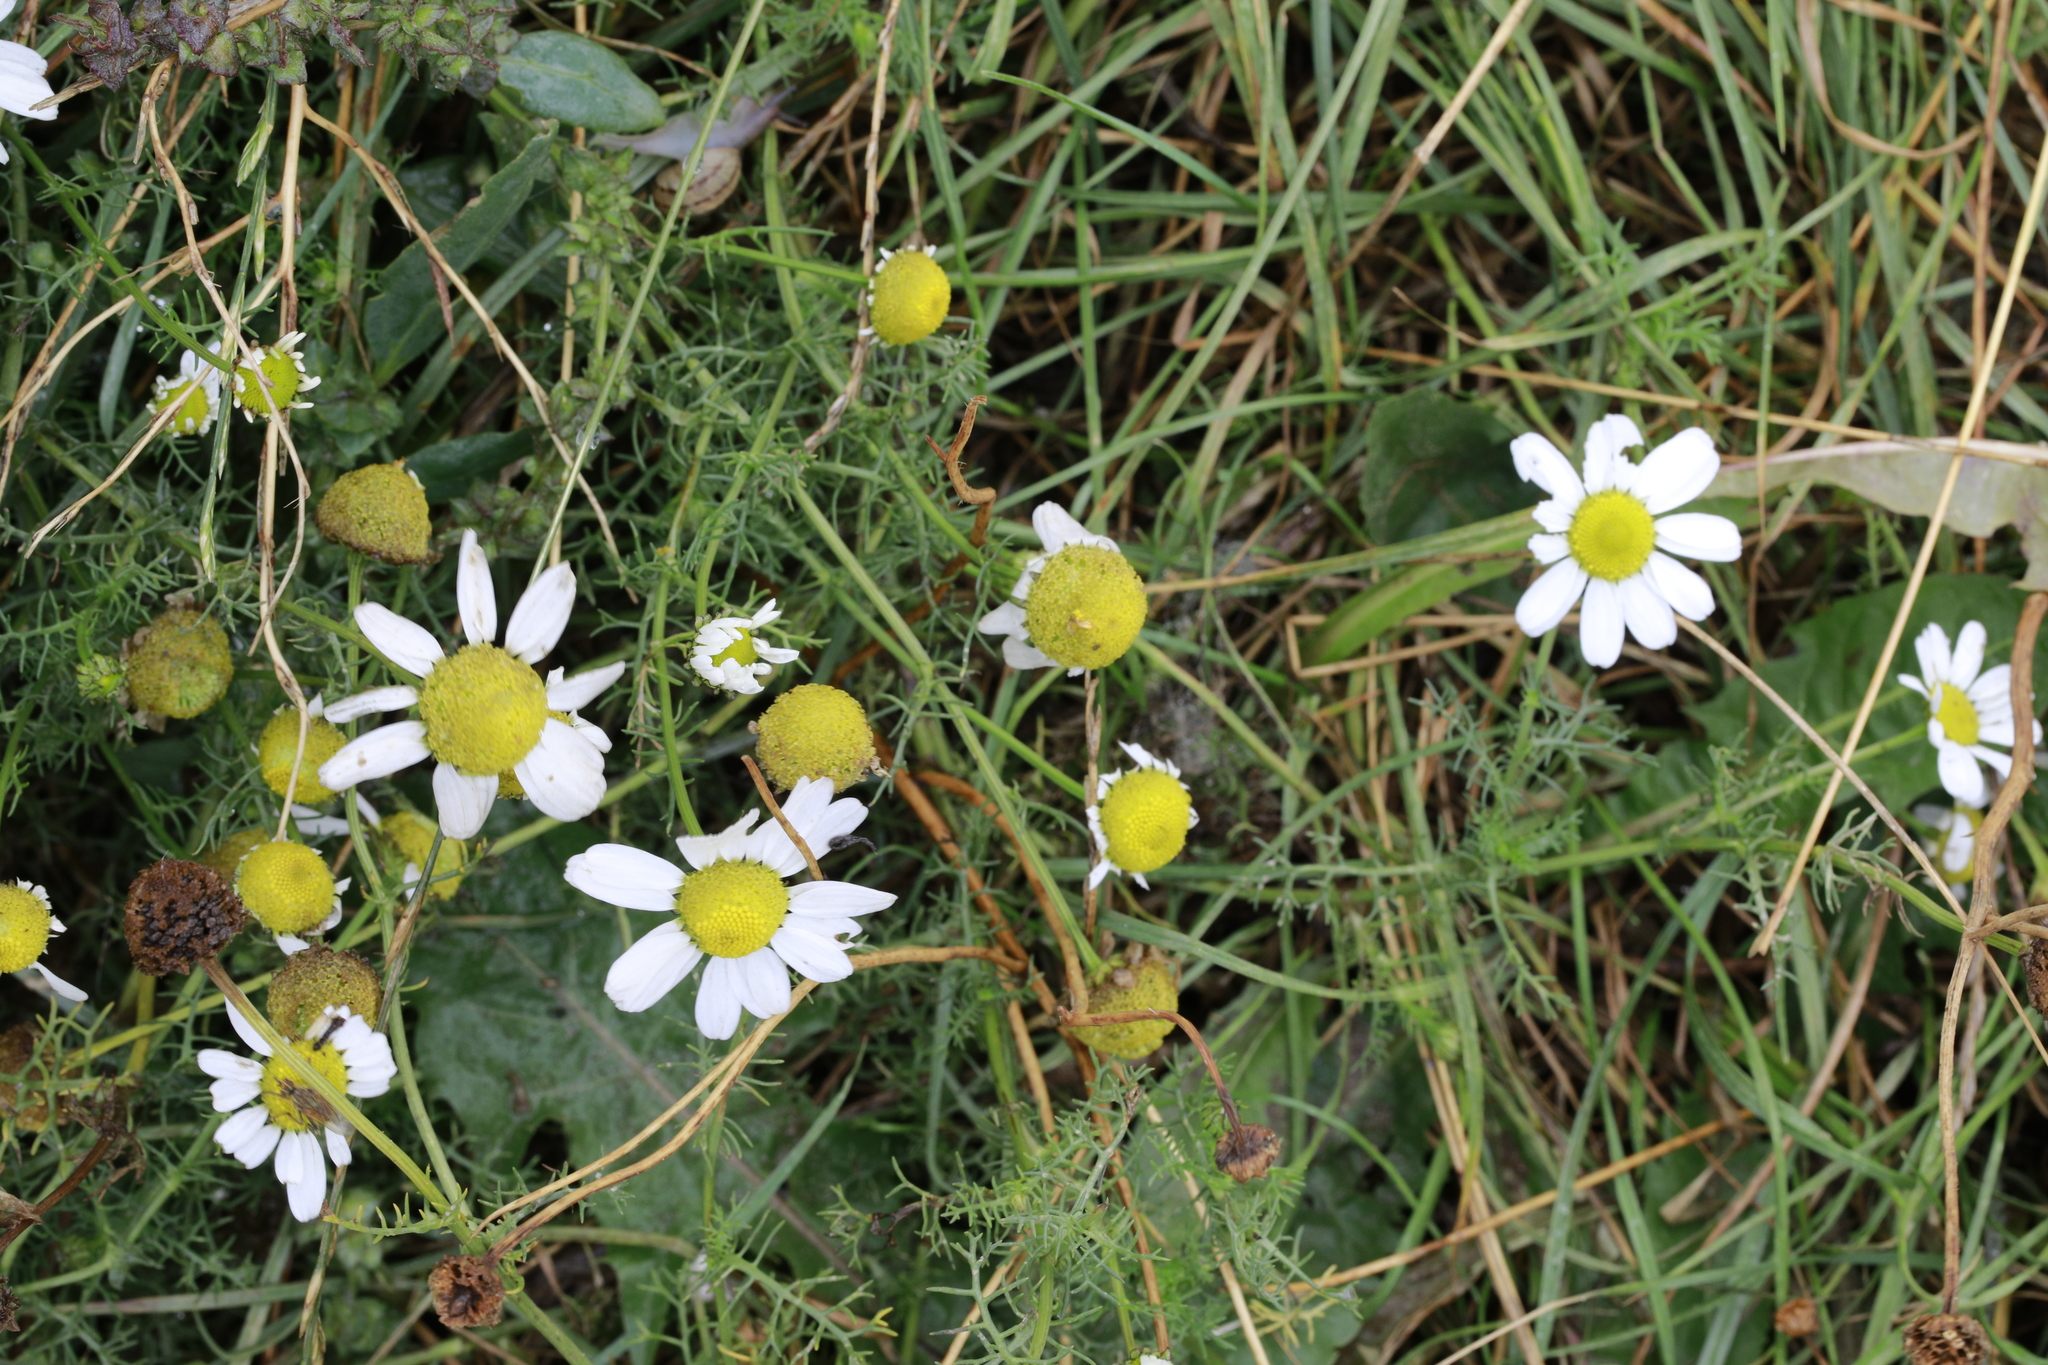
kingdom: Plantae
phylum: Tracheophyta
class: Magnoliopsida
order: Asterales
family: Asteraceae
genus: Tripleurospermum
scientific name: Tripleurospermum maritimum
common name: Sea mayweed
